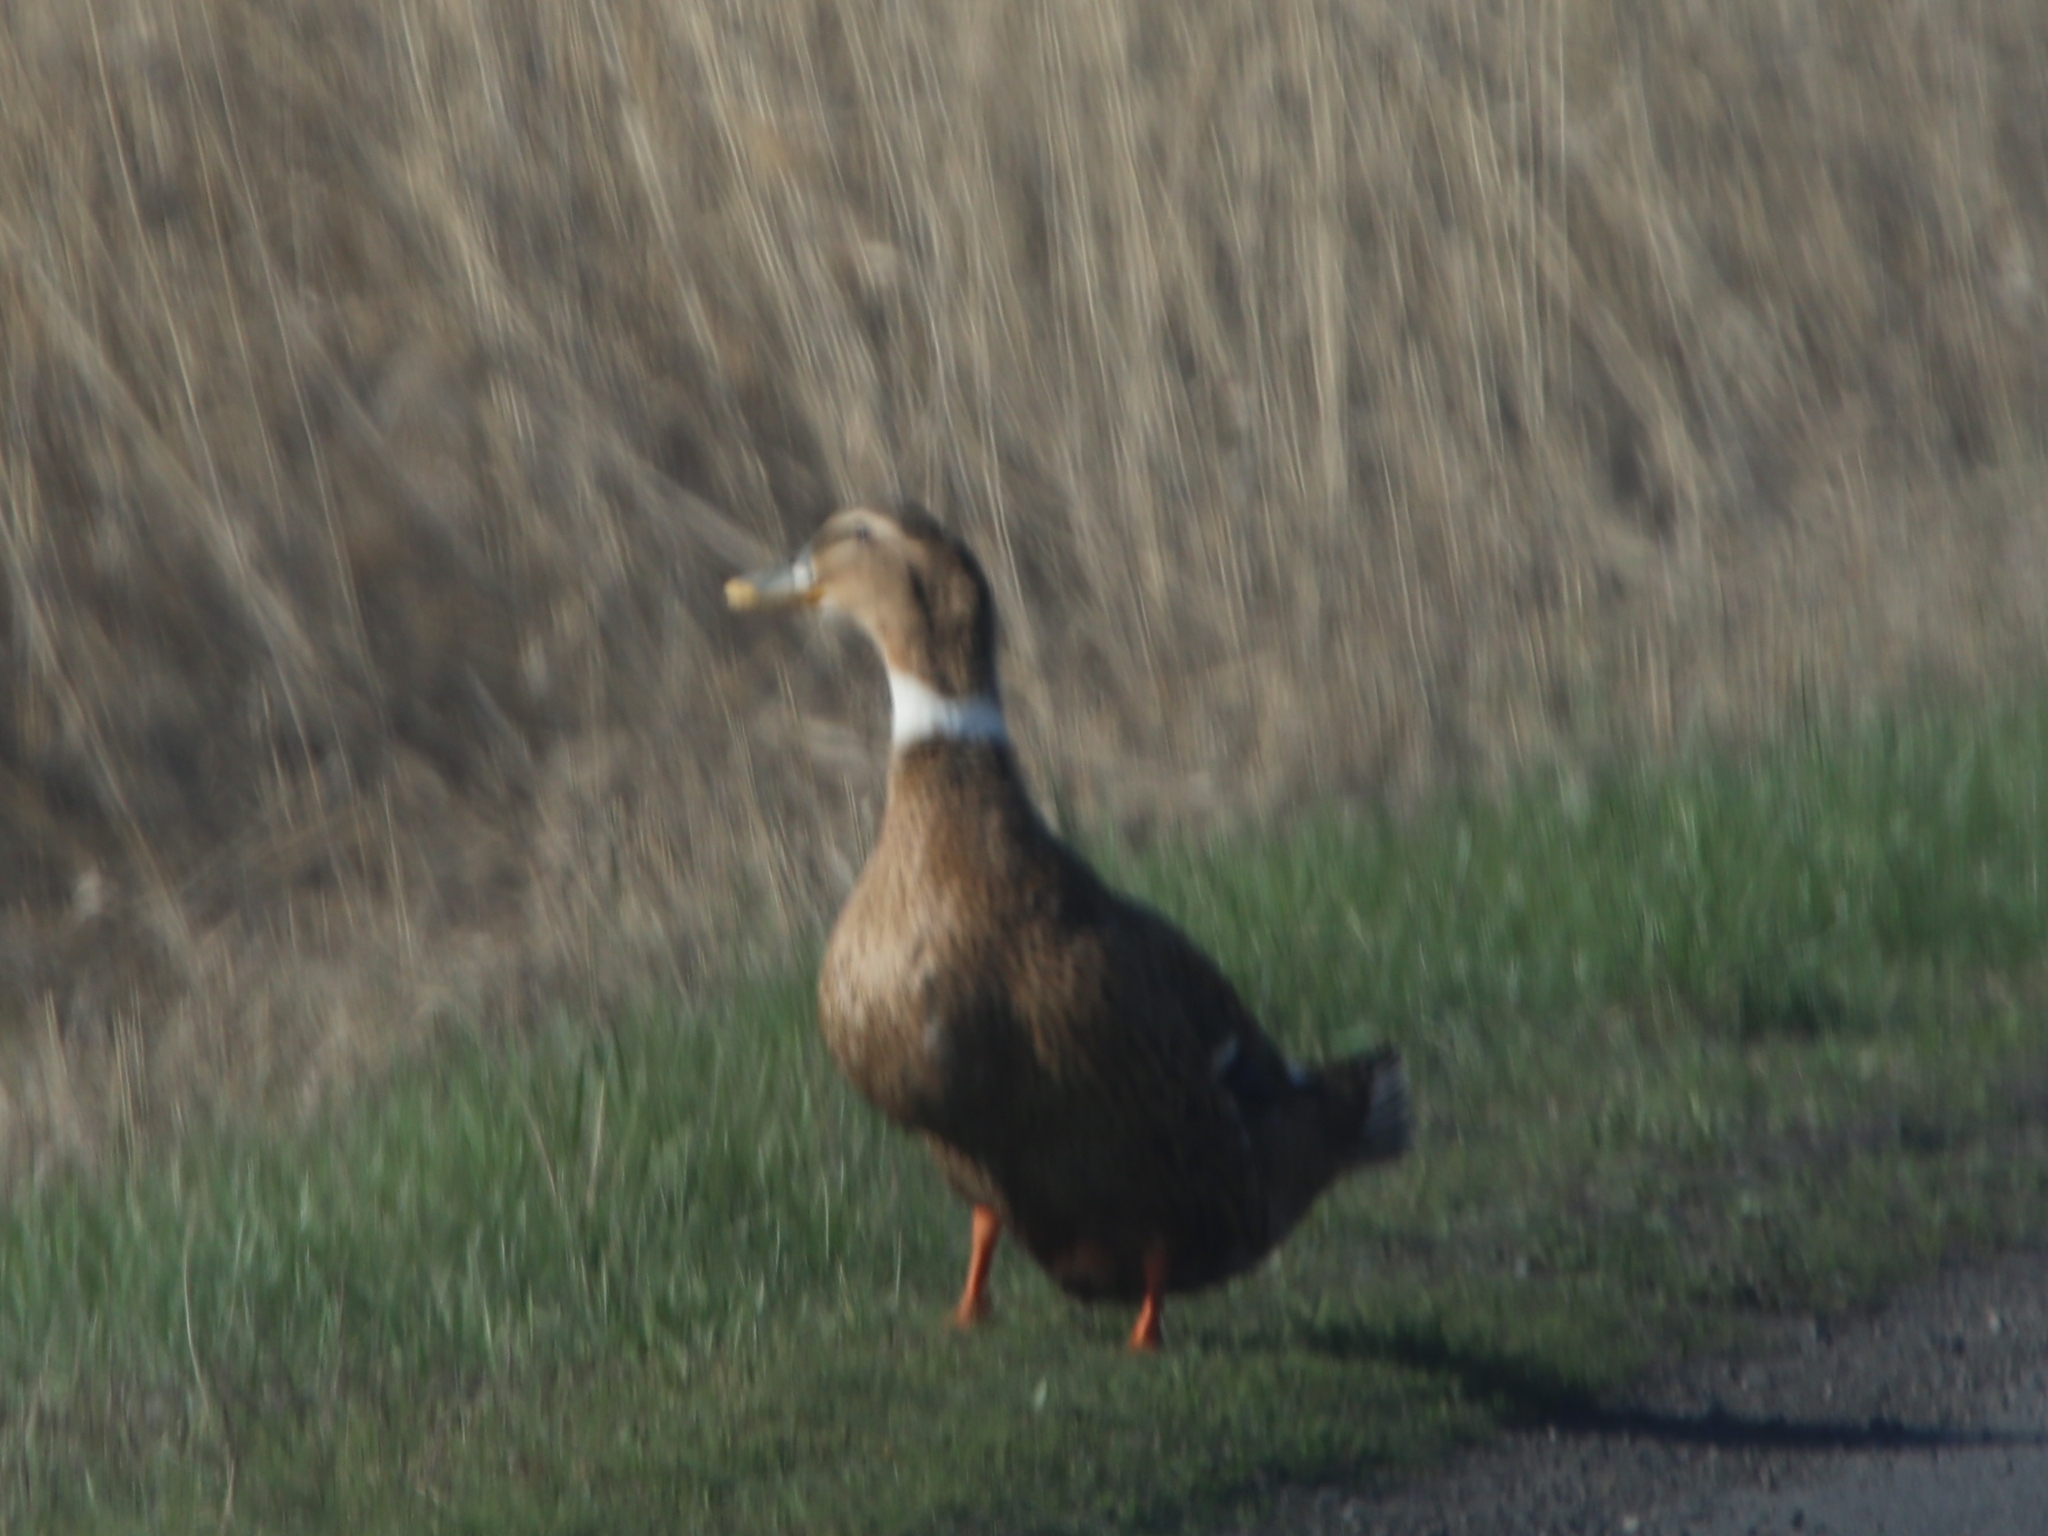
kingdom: Animalia
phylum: Chordata
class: Aves
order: Anseriformes
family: Anatidae
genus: Anas
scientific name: Anas platyrhynchos
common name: Mallard
